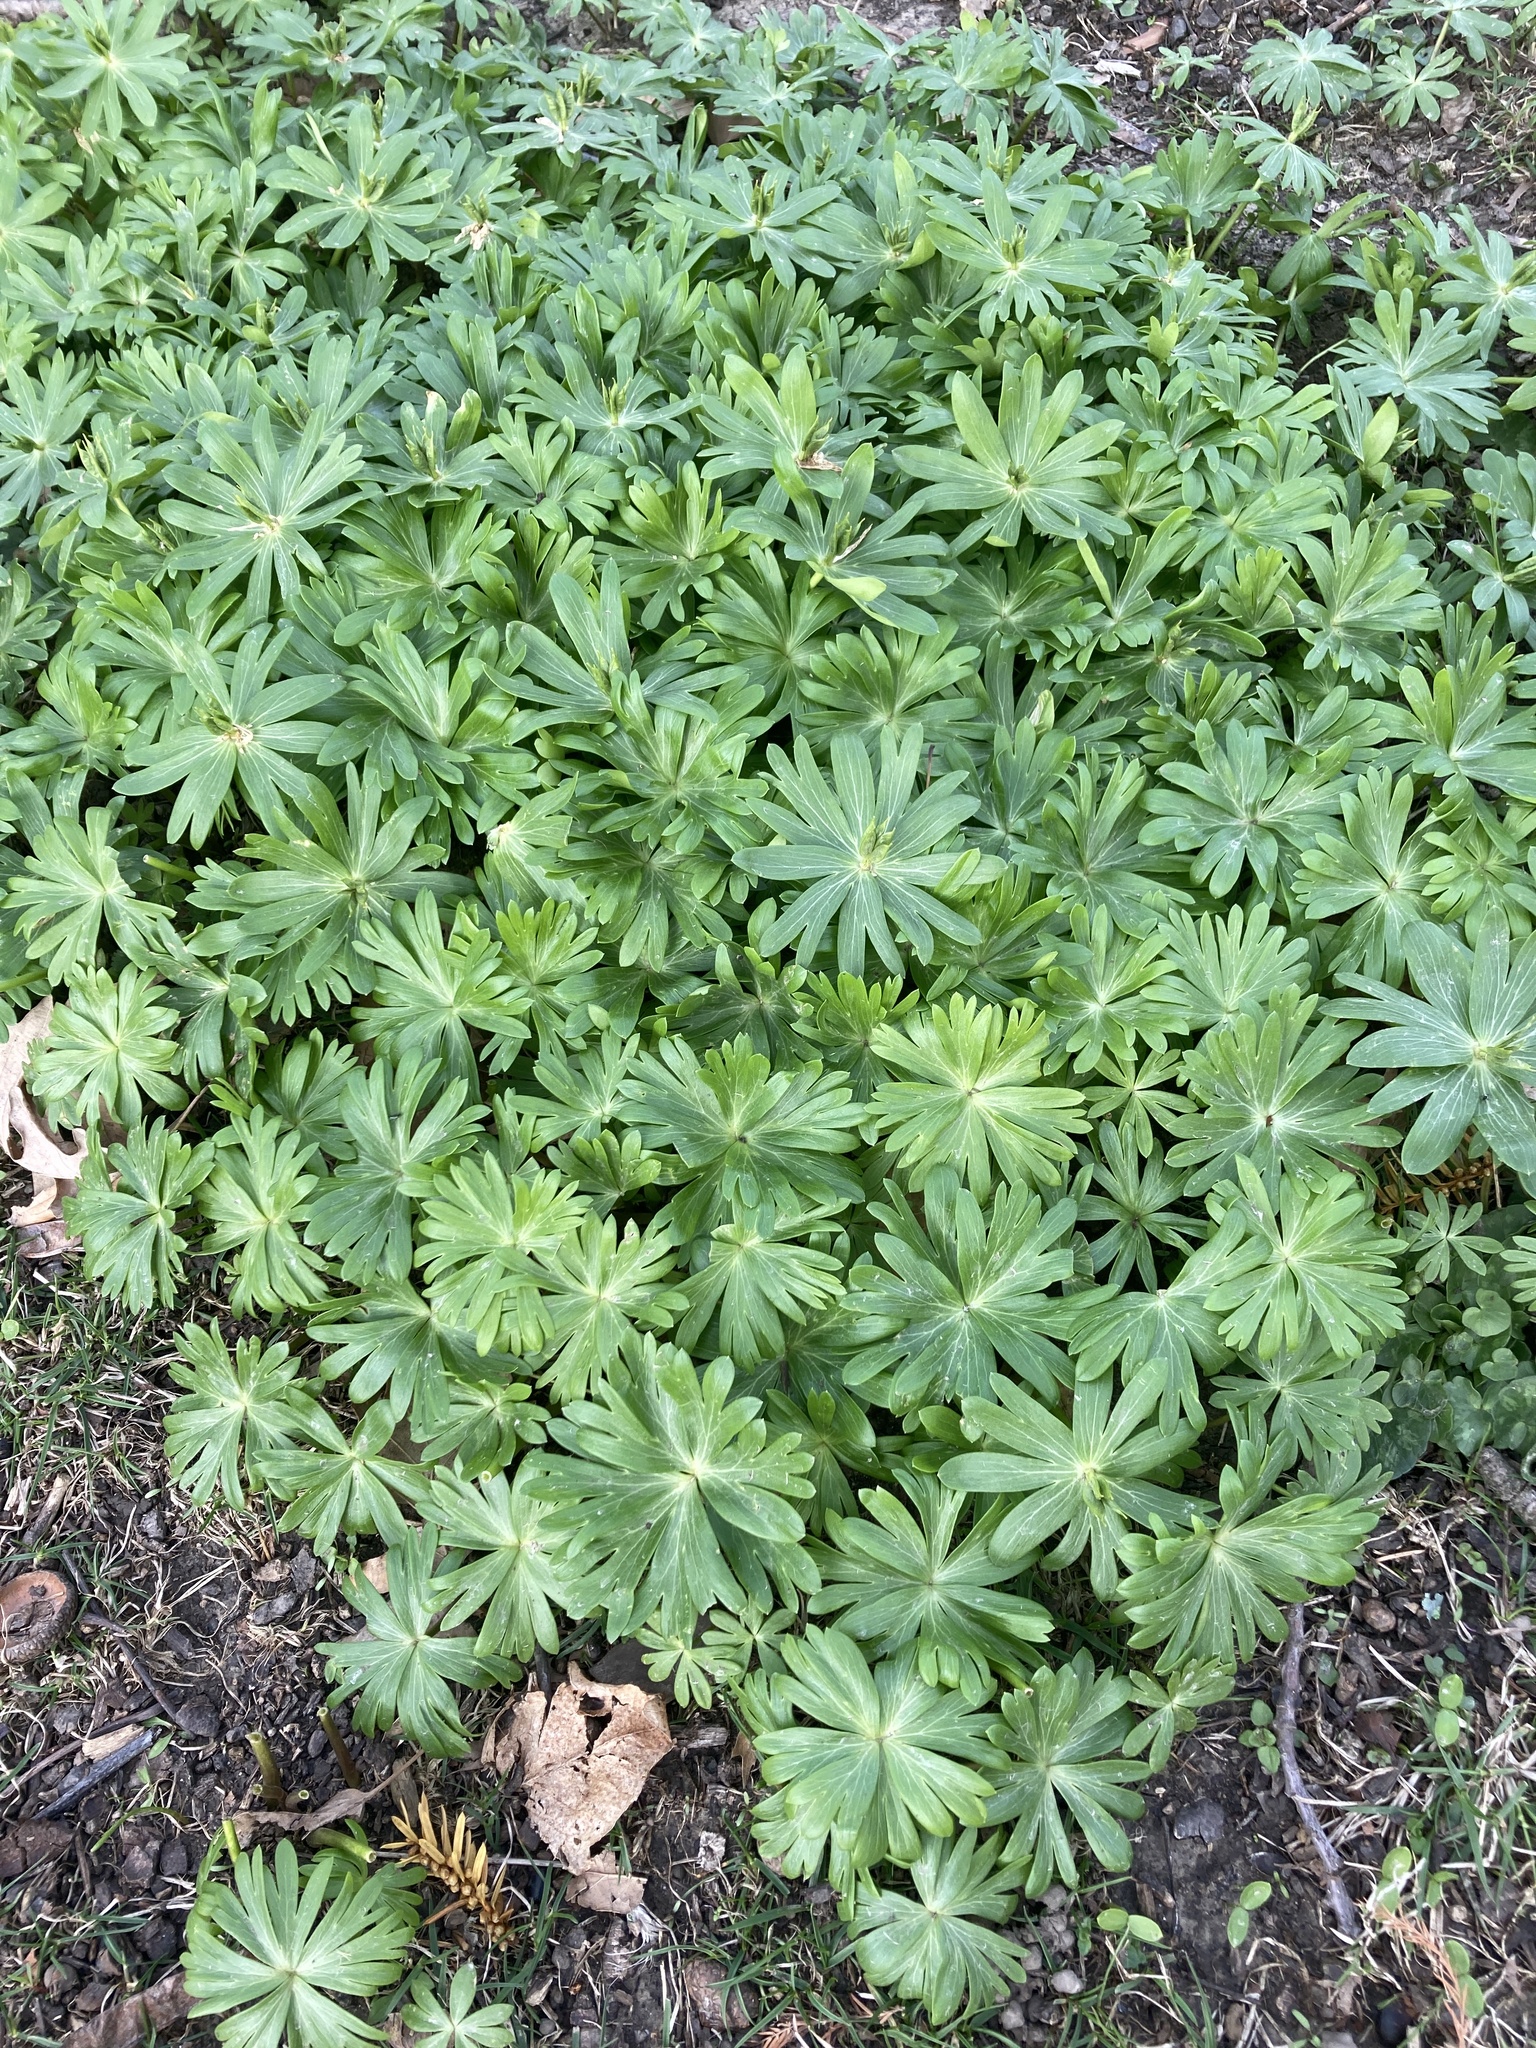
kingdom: Plantae
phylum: Tracheophyta
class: Magnoliopsida
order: Ranunculales
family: Ranunculaceae
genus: Eranthis
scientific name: Eranthis hyemalis
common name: Winter aconite
